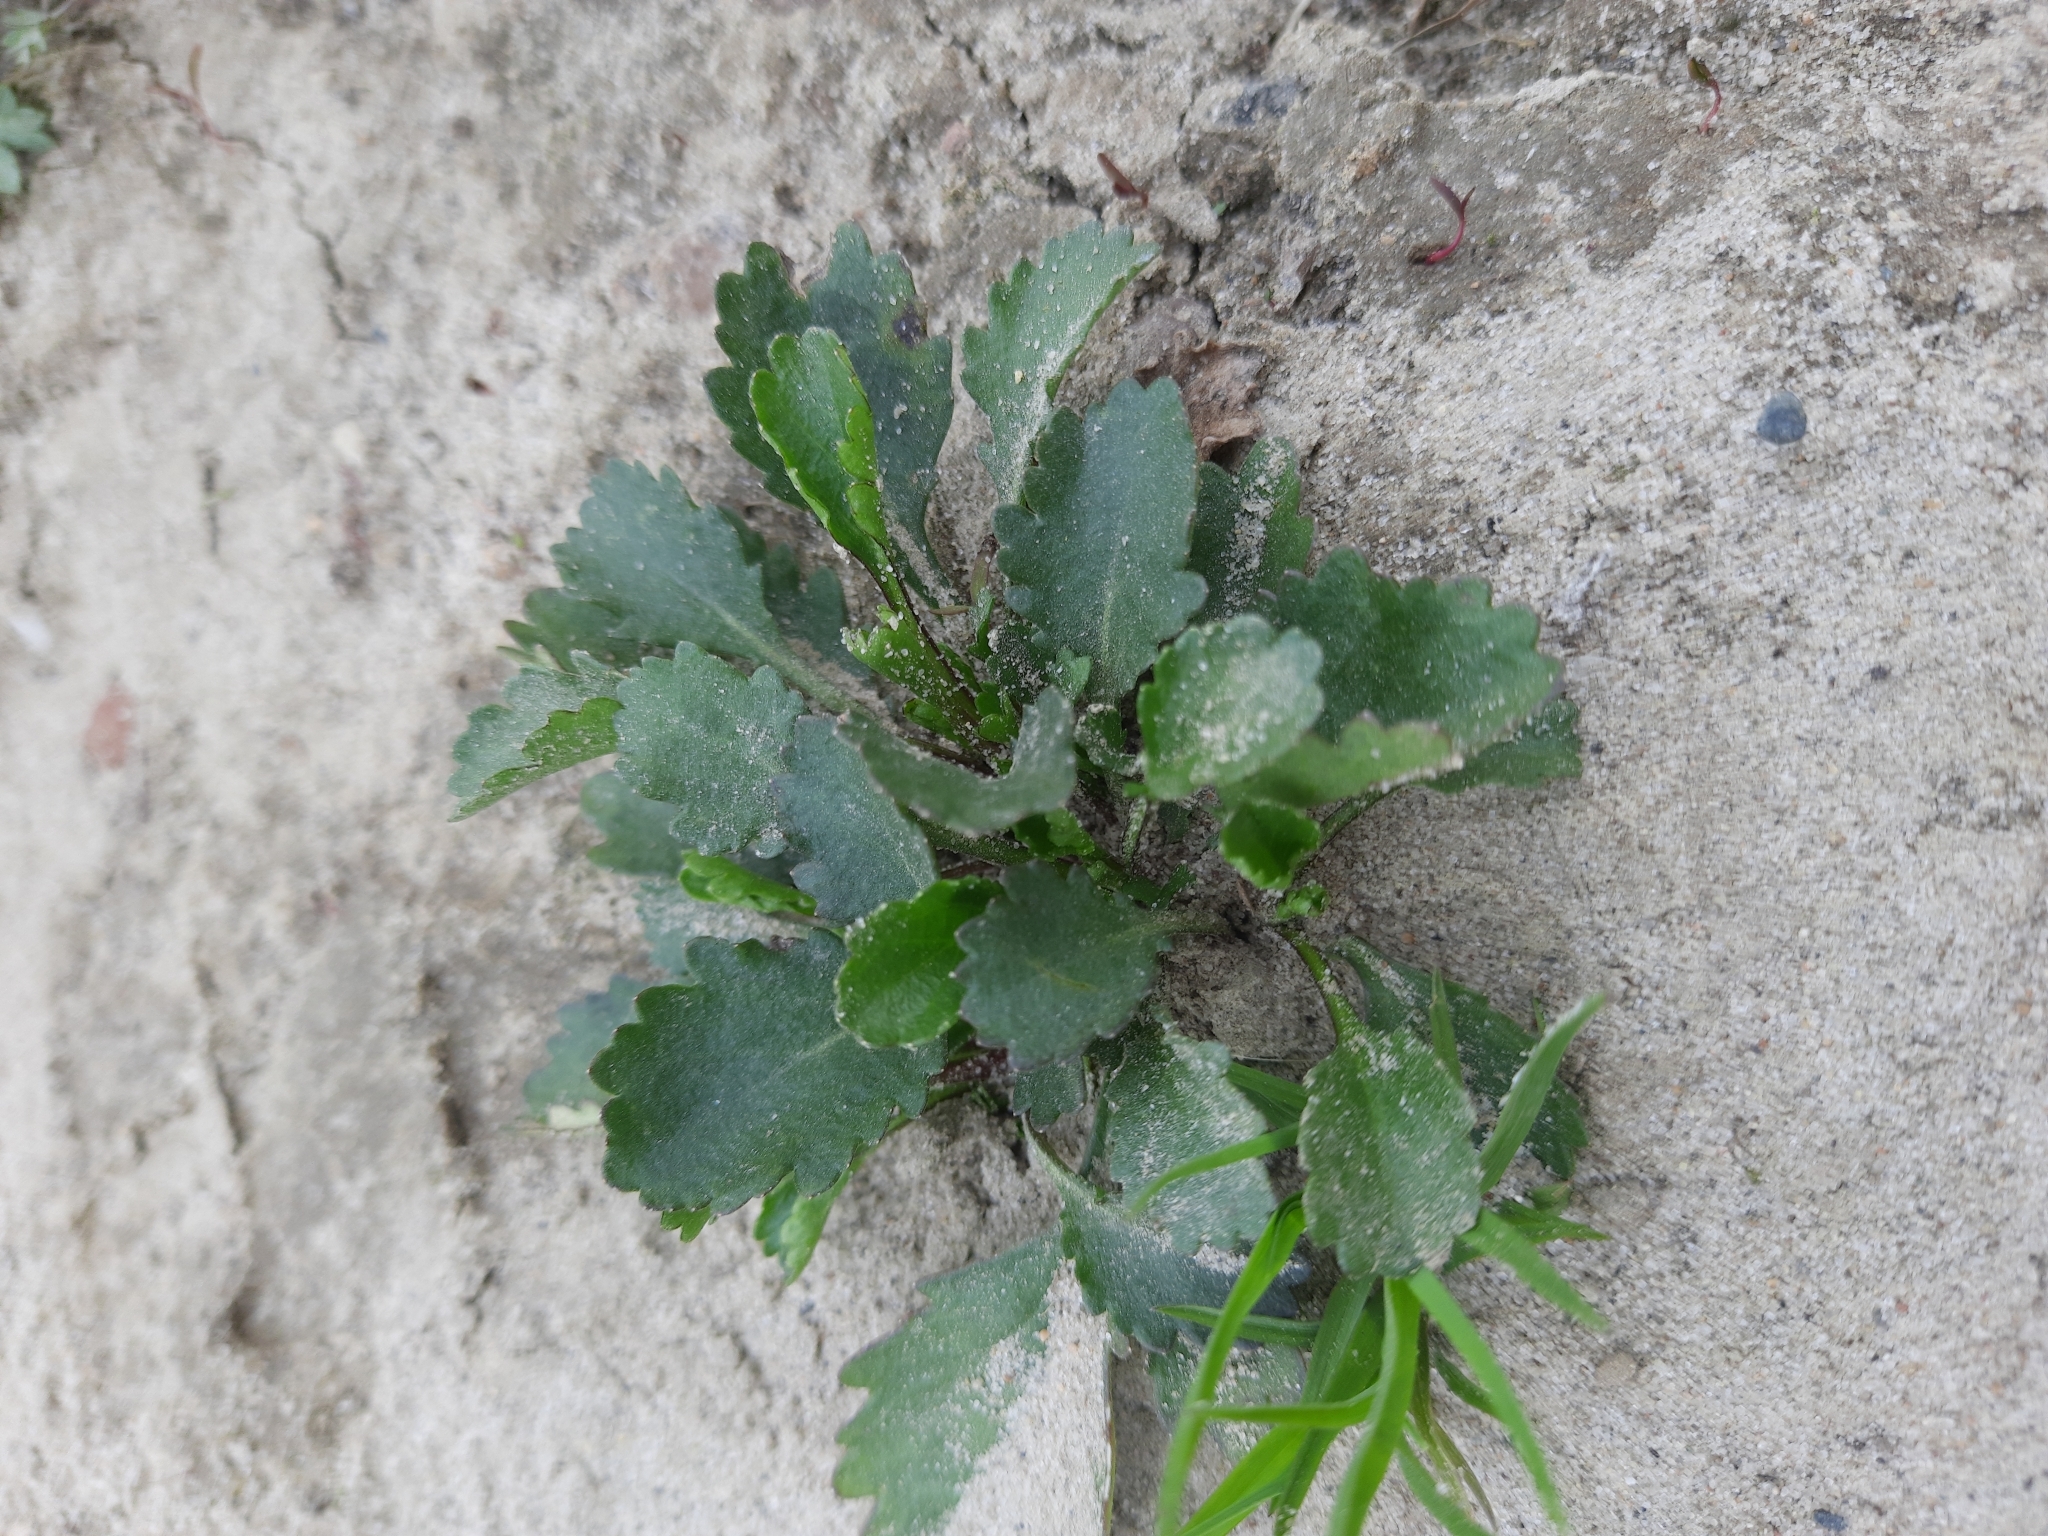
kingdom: Plantae
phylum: Tracheophyta
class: Magnoliopsida
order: Asterales
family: Asteraceae
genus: Leucanthemum
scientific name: Leucanthemum ircutianum
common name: Daisy
